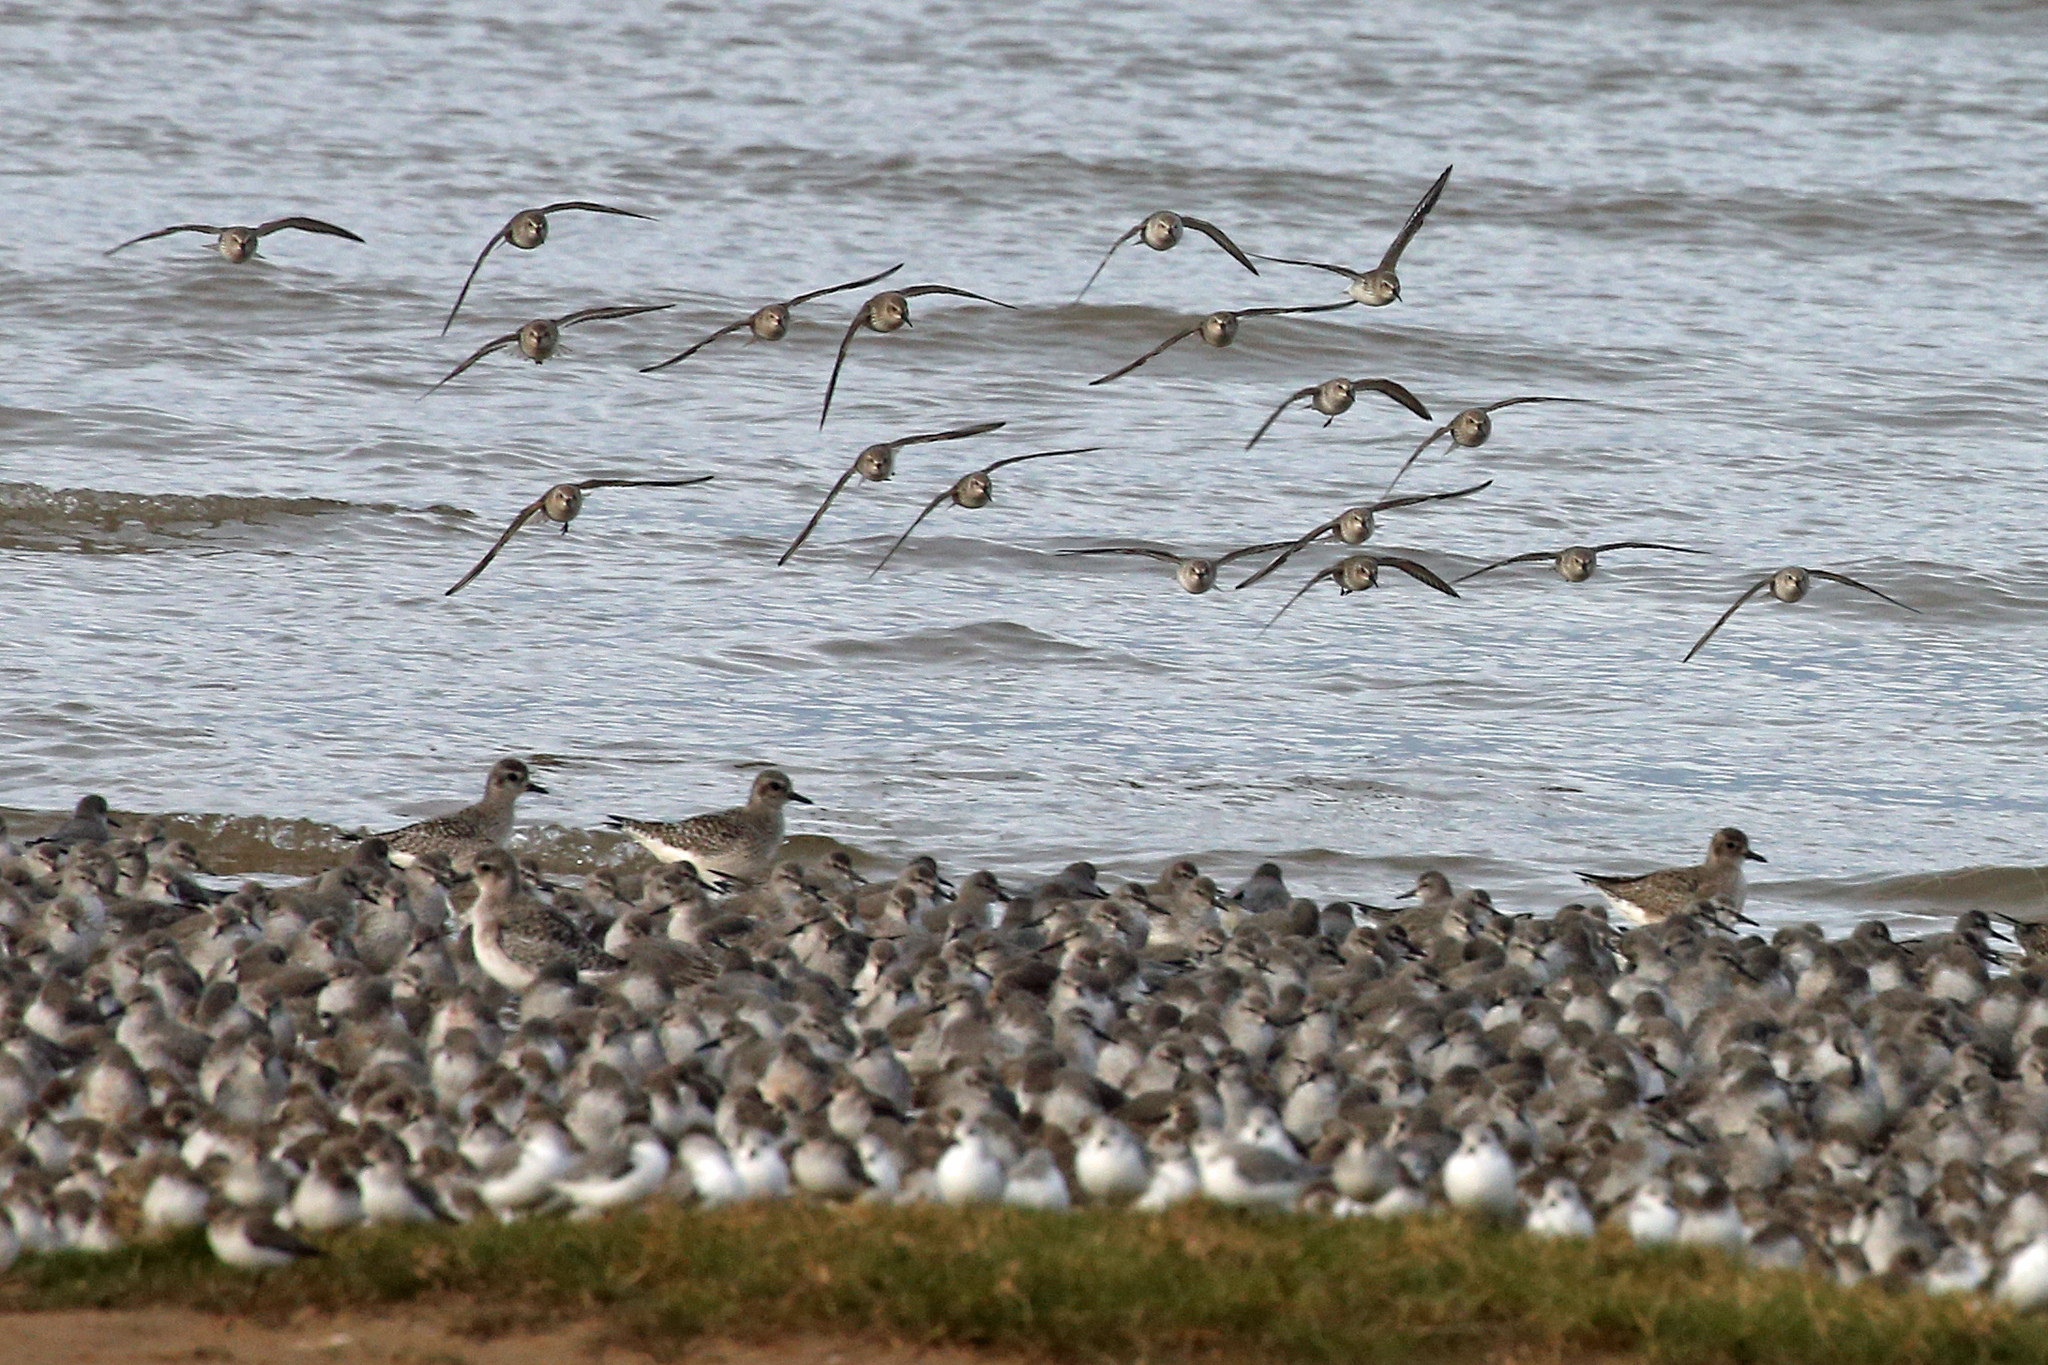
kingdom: Animalia
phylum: Chordata
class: Aves
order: Charadriiformes
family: Scolopacidae
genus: Calidris
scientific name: Calidris canutus
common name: Red knot
